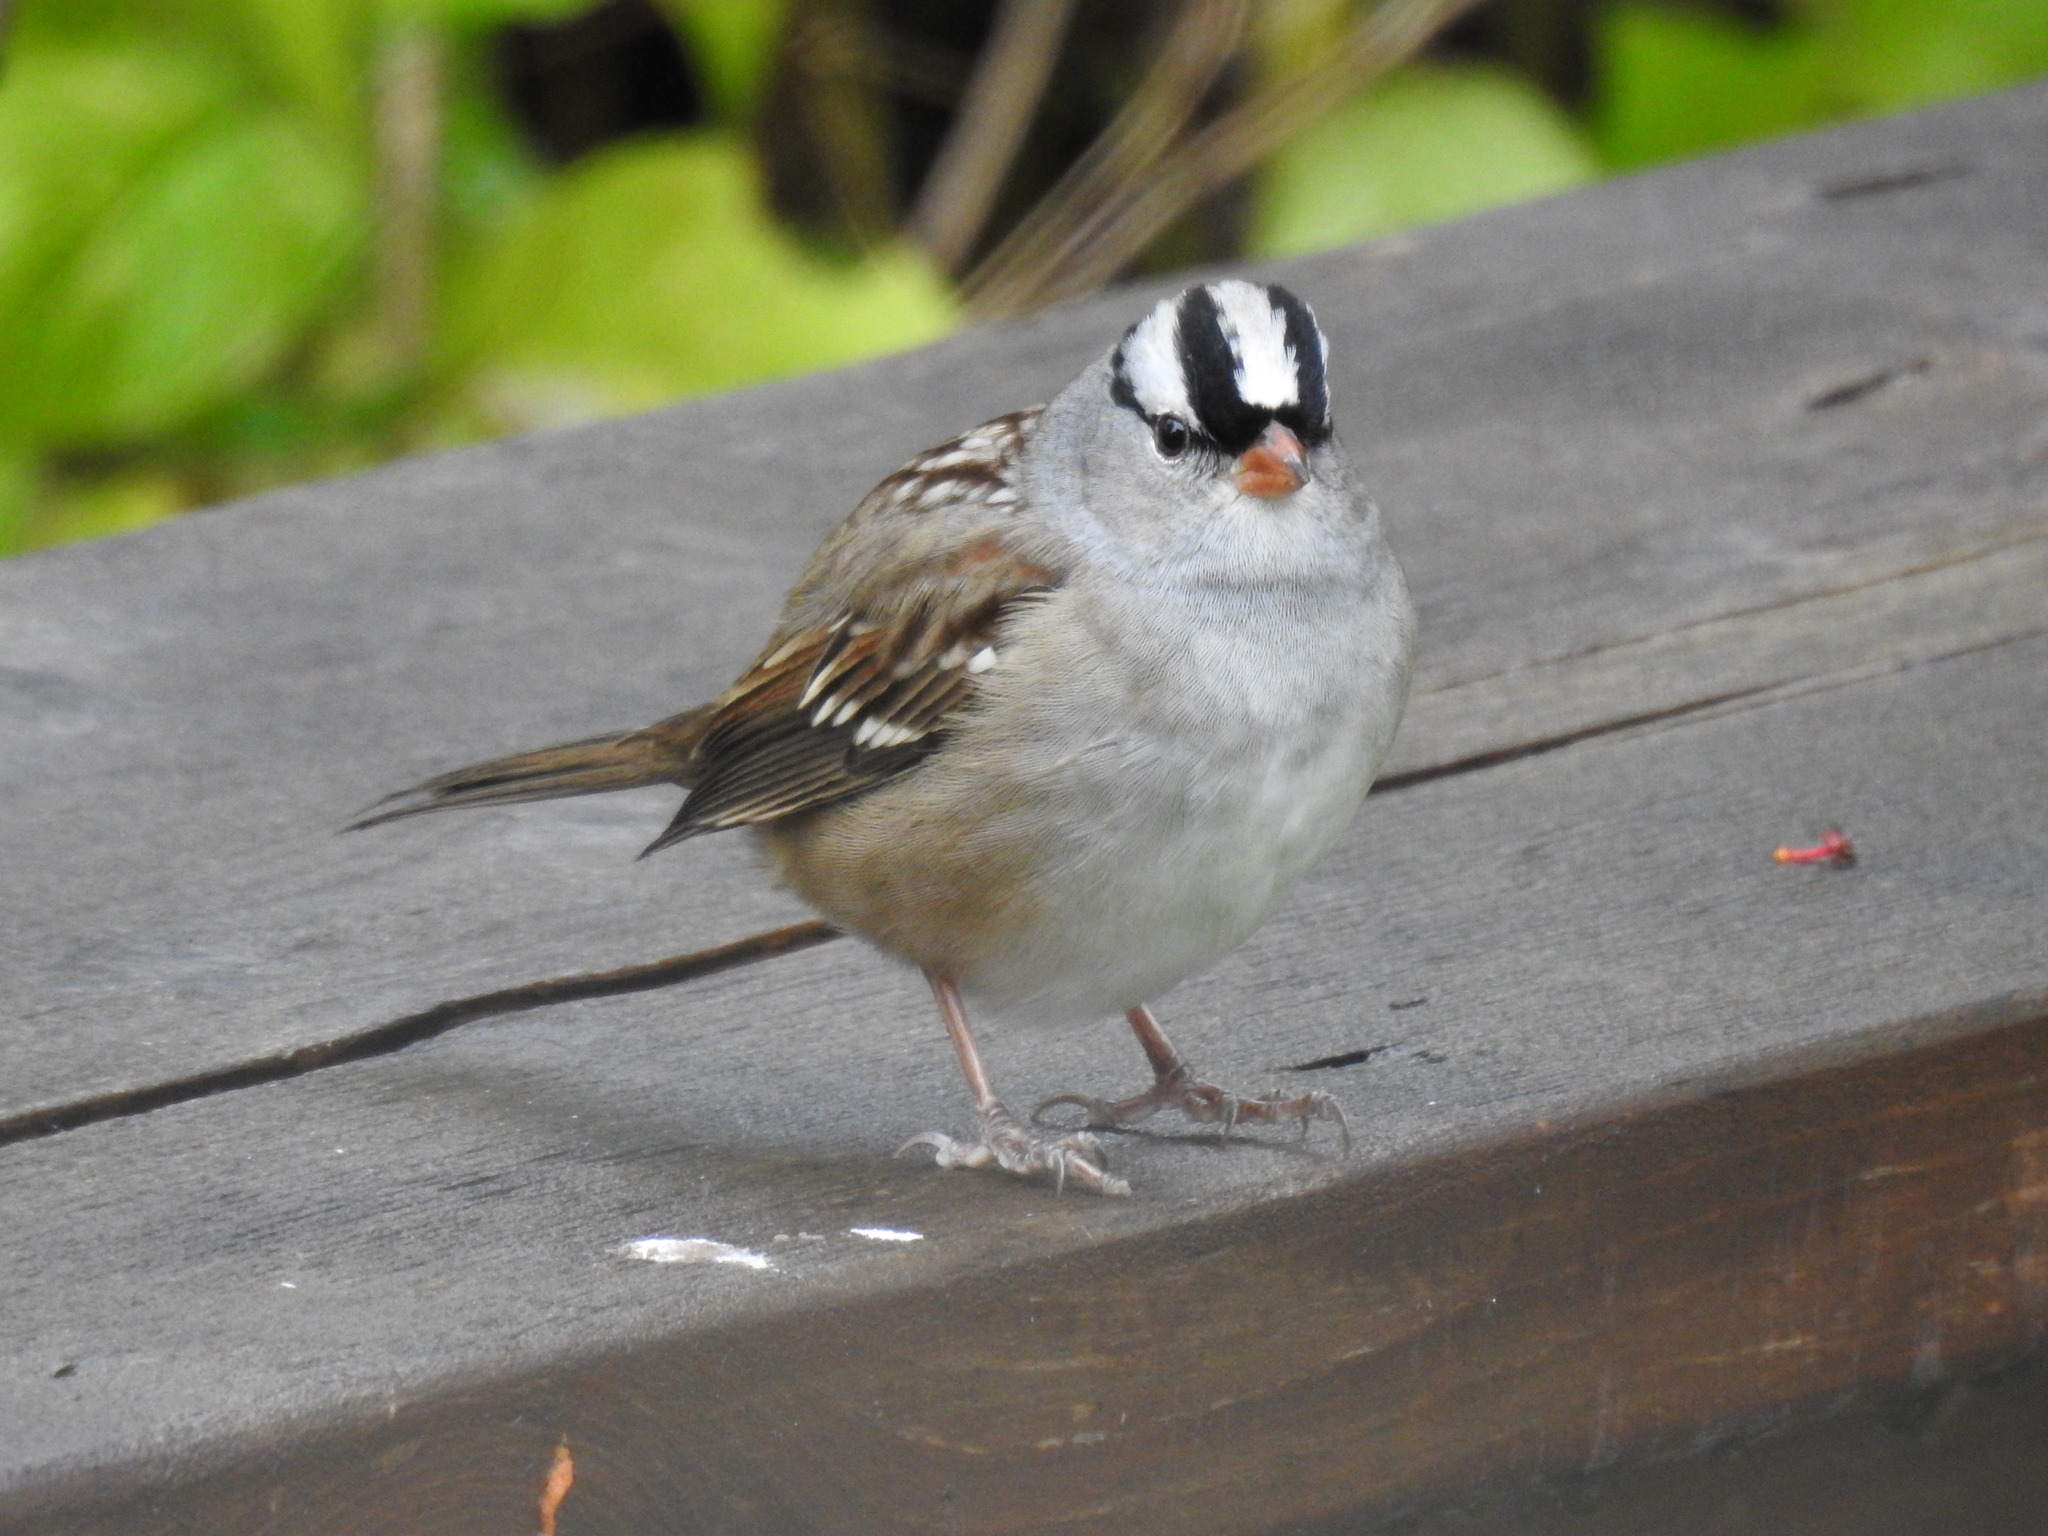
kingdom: Animalia
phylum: Chordata
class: Aves
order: Passeriformes
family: Passerellidae
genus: Zonotrichia
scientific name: Zonotrichia leucophrys
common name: White-crowned sparrow
